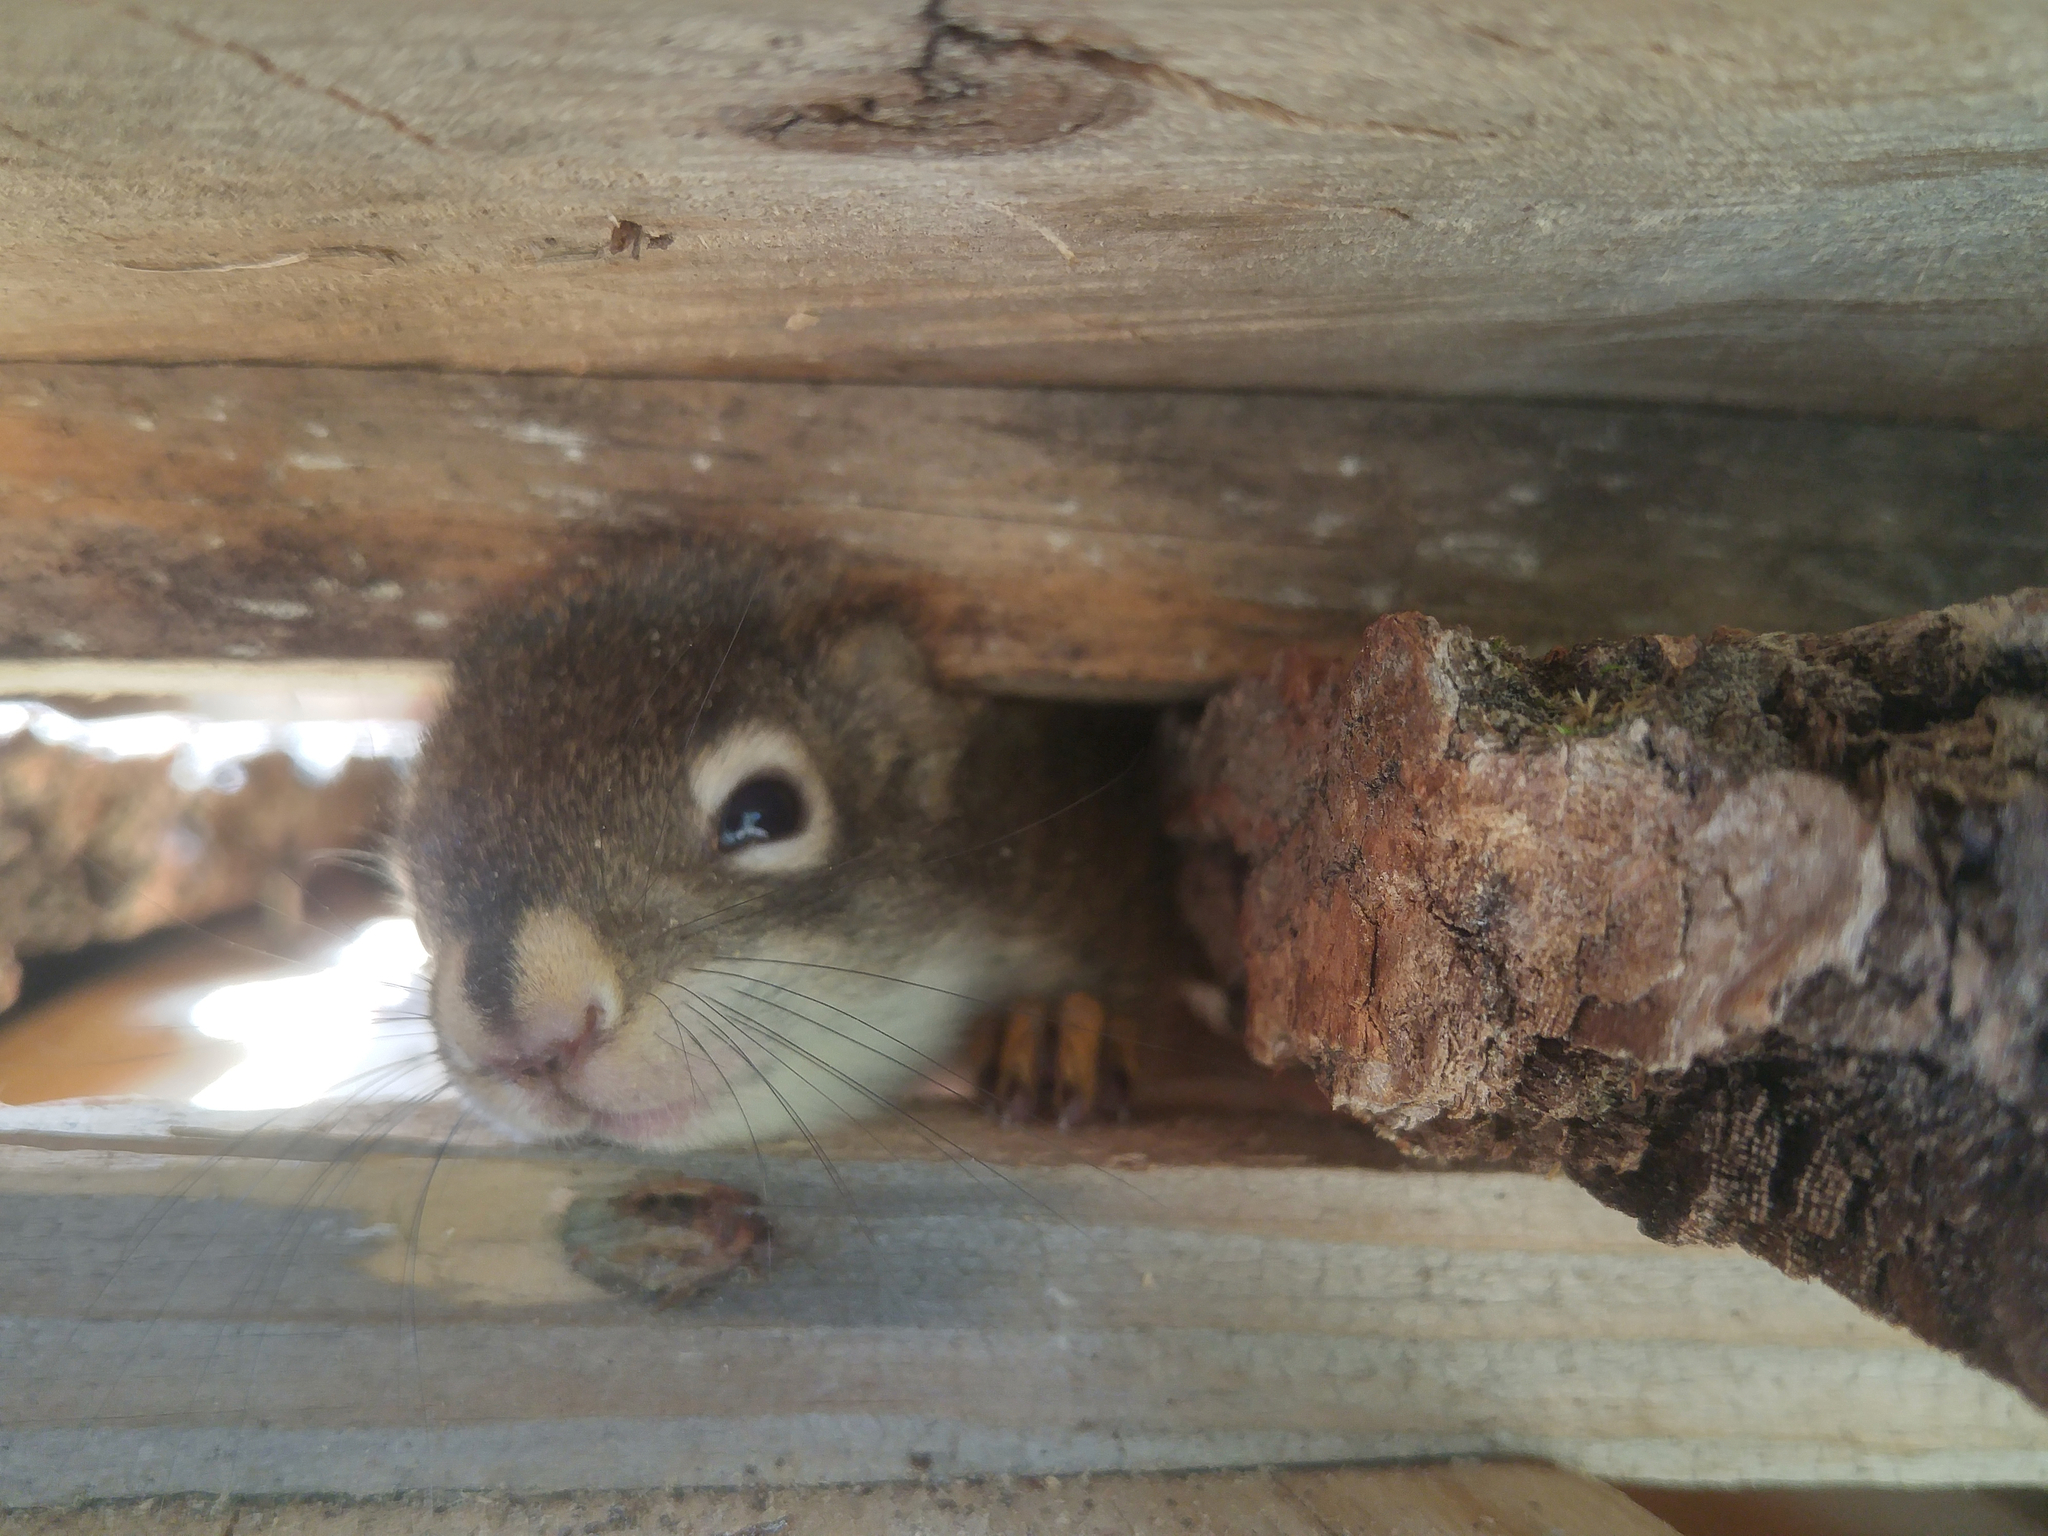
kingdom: Animalia
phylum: Chordata
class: Mammalia
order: Rodentia
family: Sciuridae
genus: Tamiasciurus
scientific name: Tamiasciurus hudsonicus
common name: Red squirrel
